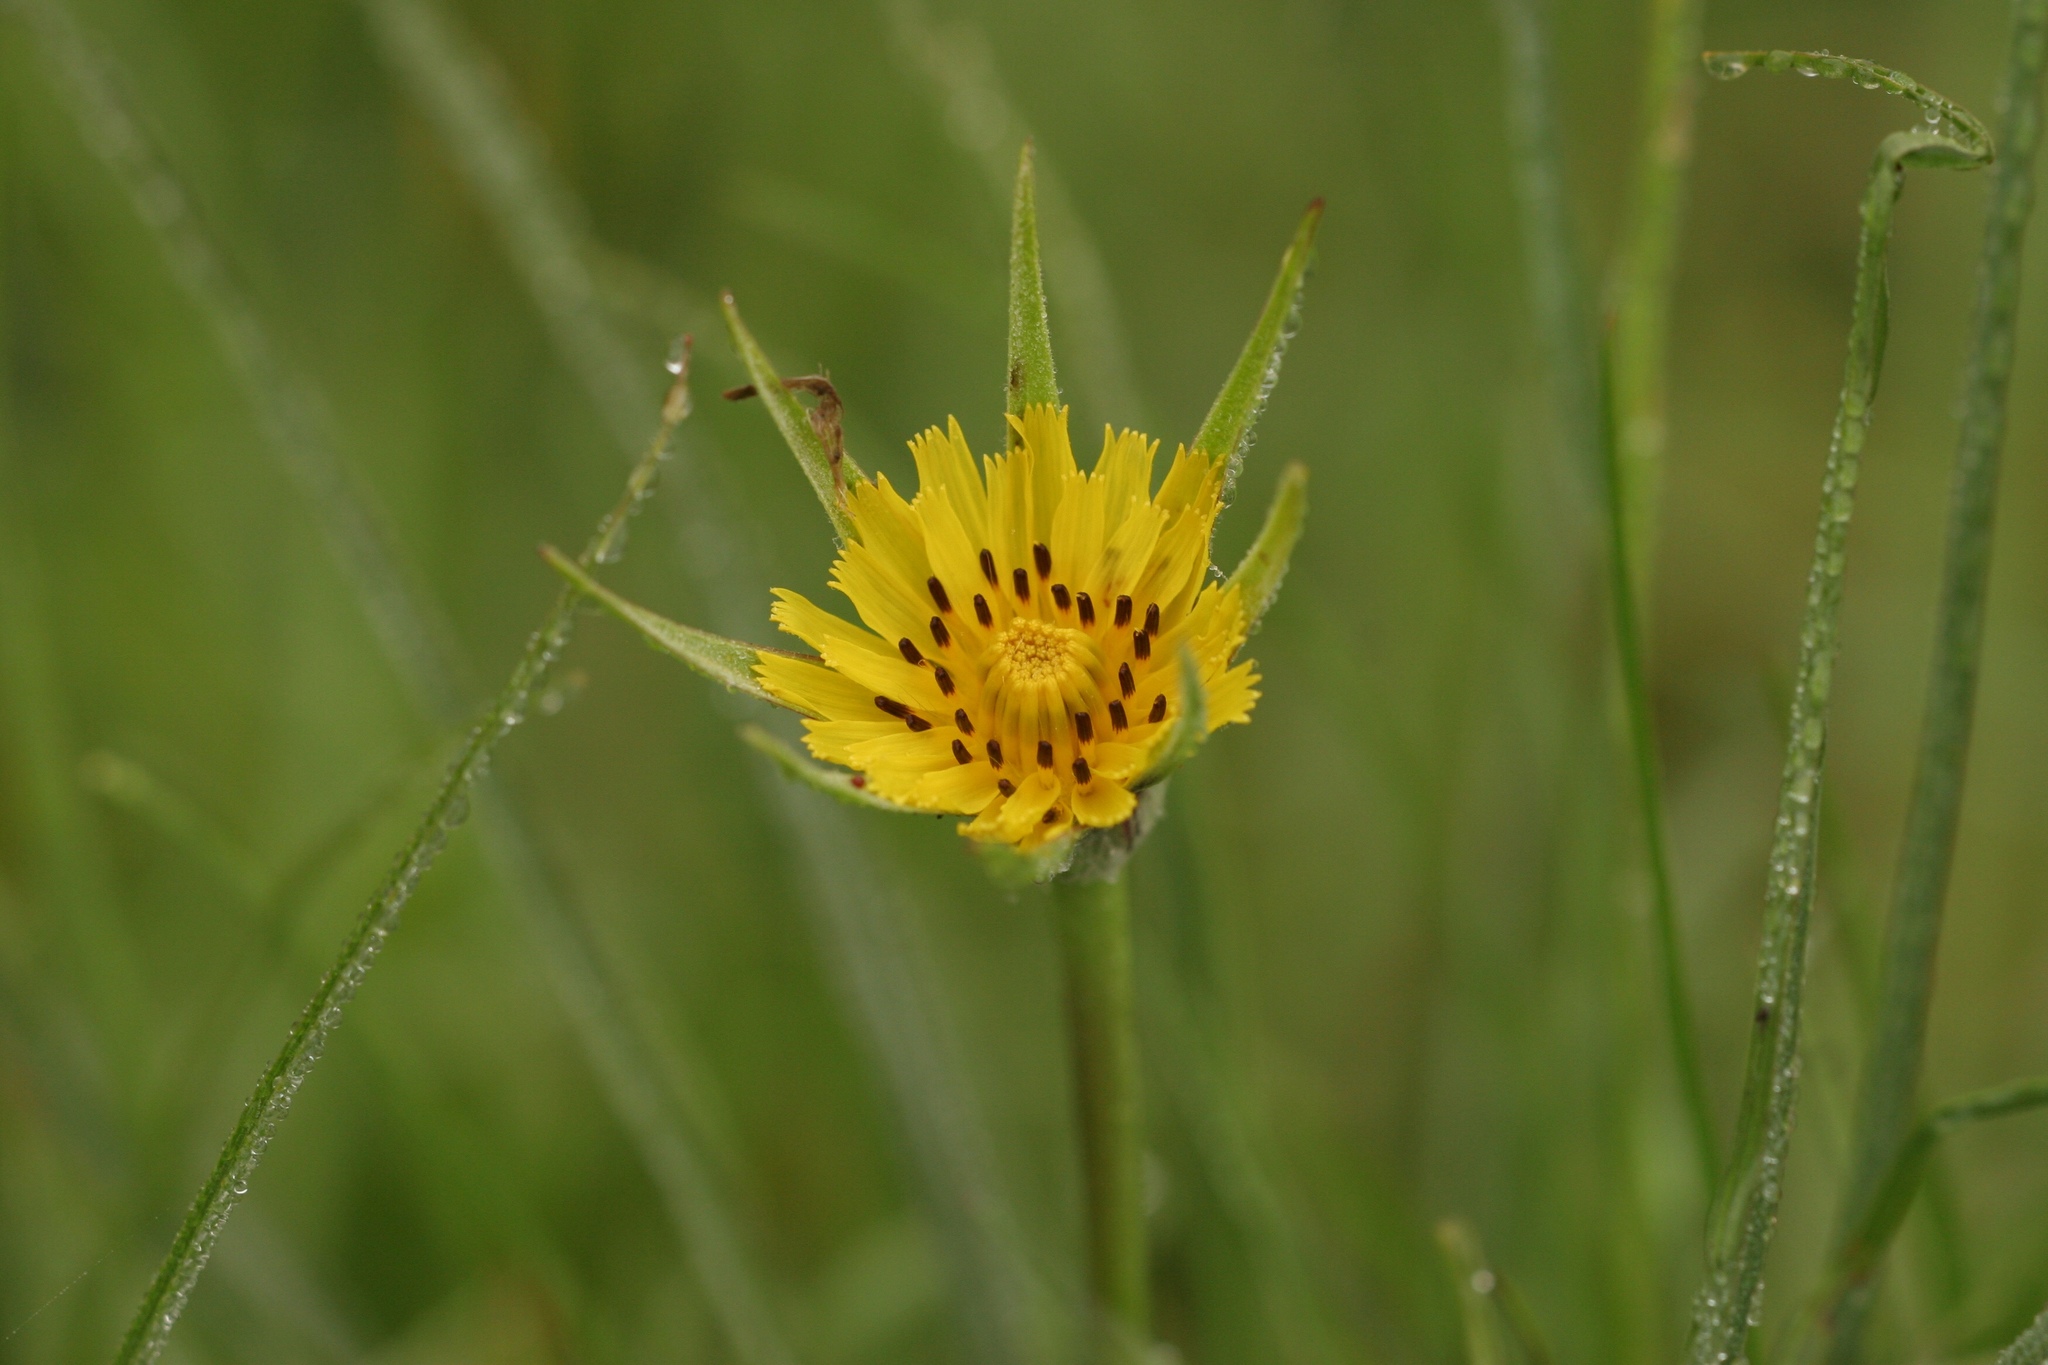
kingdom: Plantae
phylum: Tracheophyta
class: Magnoliopsida
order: Asterales
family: Asteraceae
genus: Tragopogon
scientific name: Tragopogon minor
